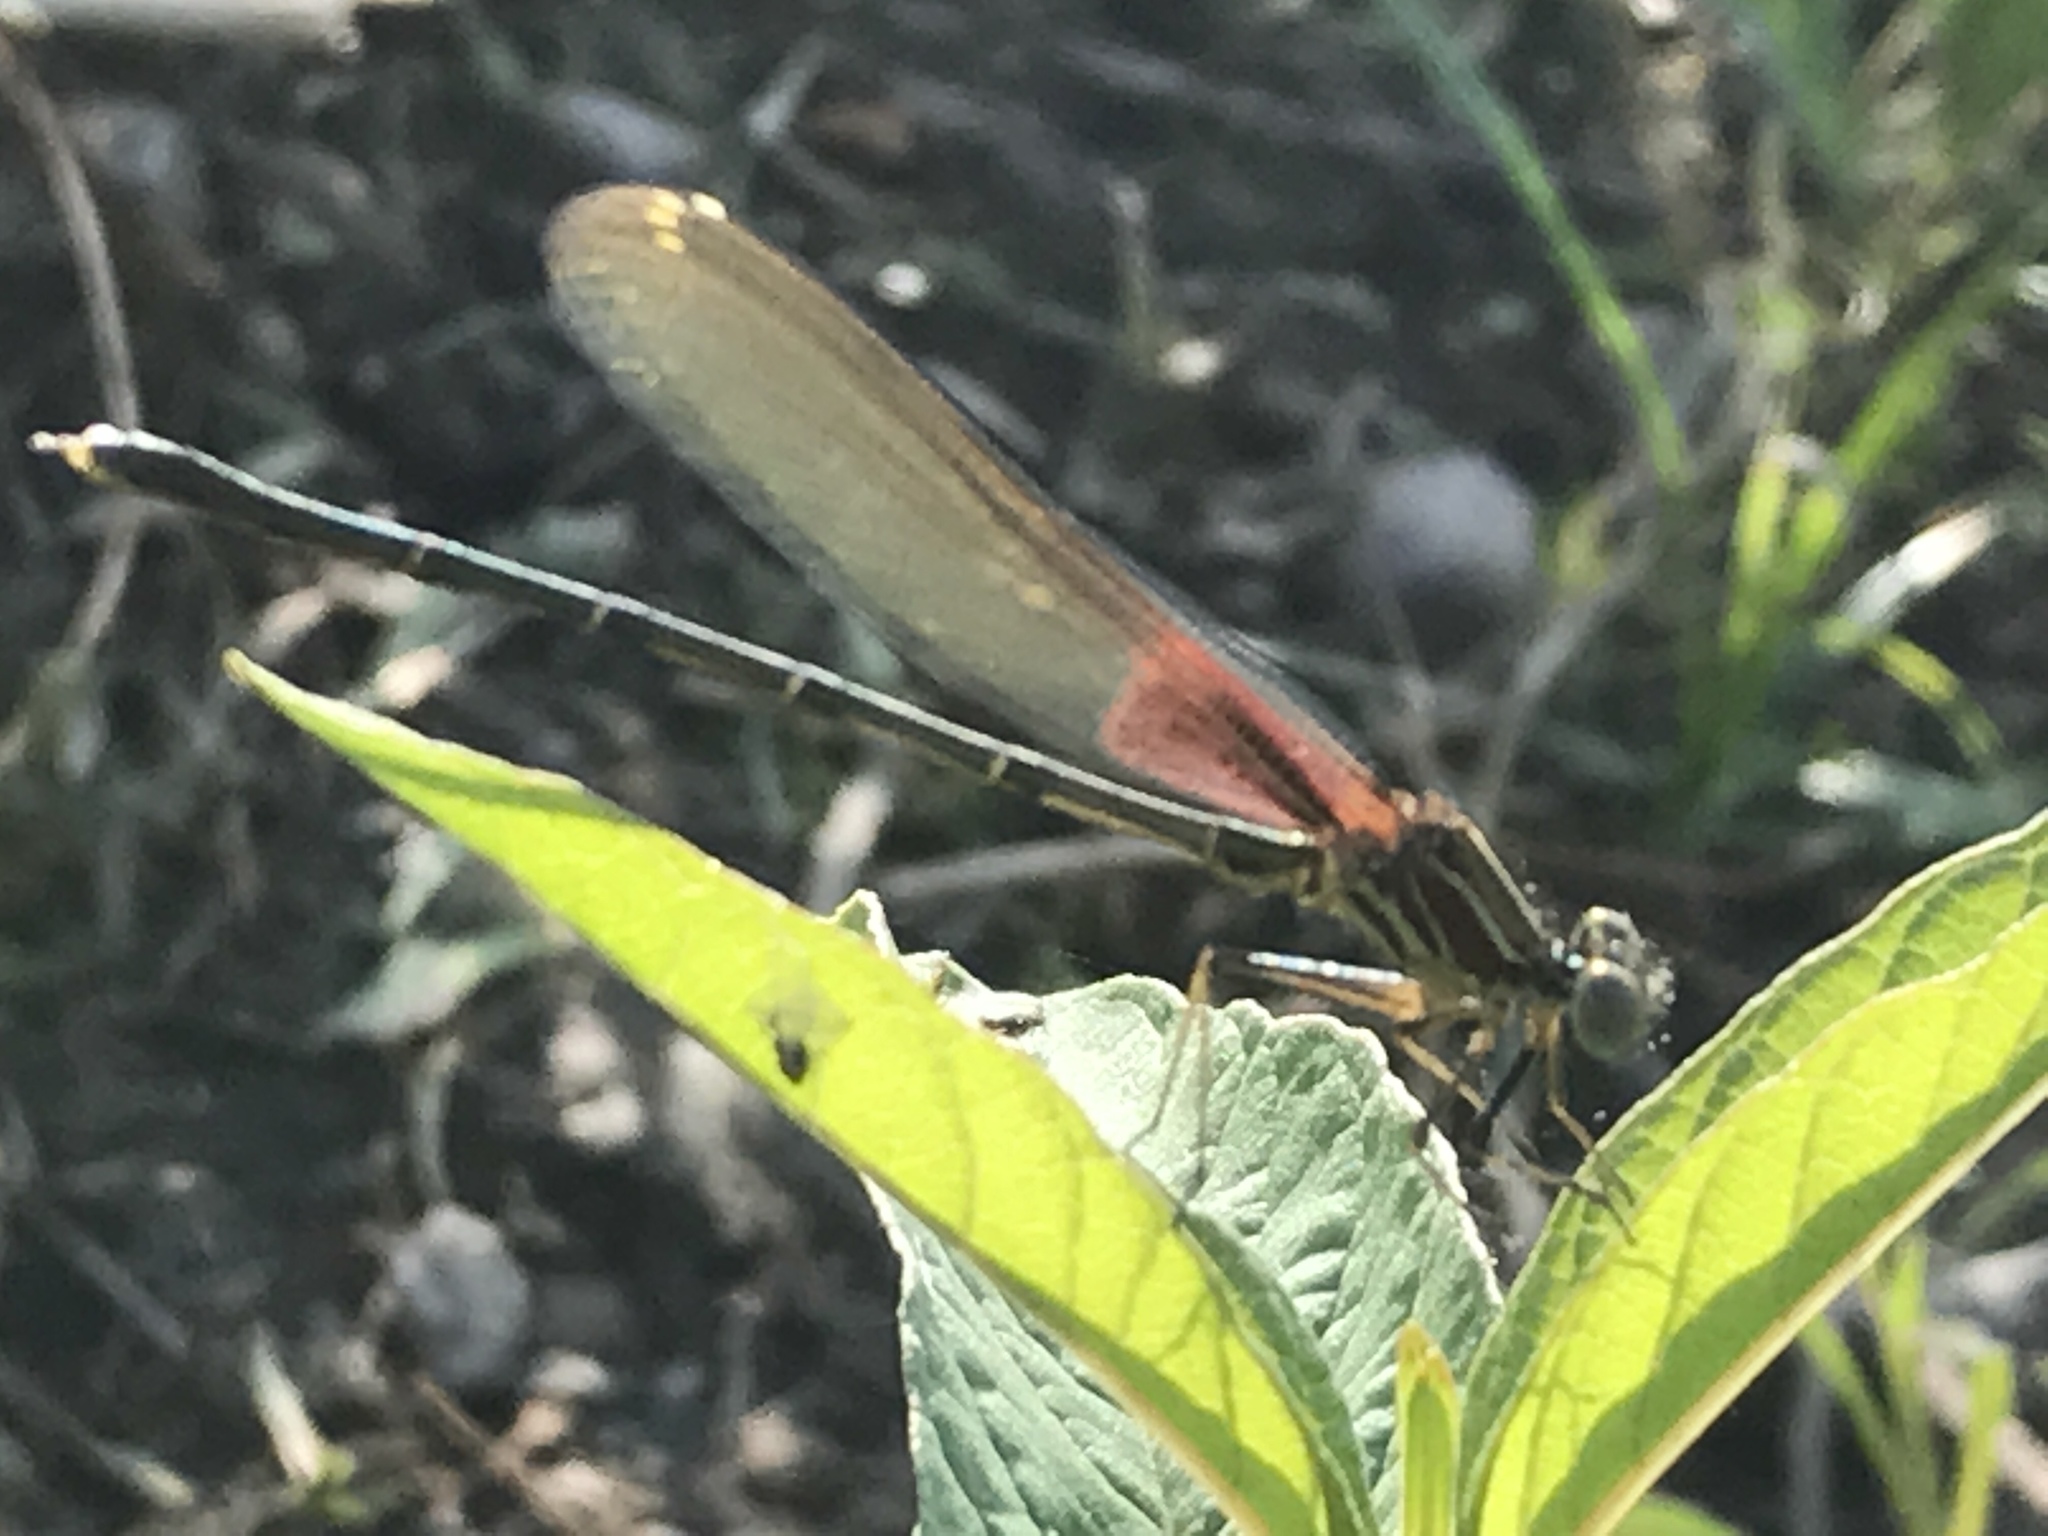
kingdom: Animalia
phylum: Arthropoda
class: Insecta
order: Odonata
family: Calopterygidae
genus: Hetaerina
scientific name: Hetaerina americana
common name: American rubyspot
